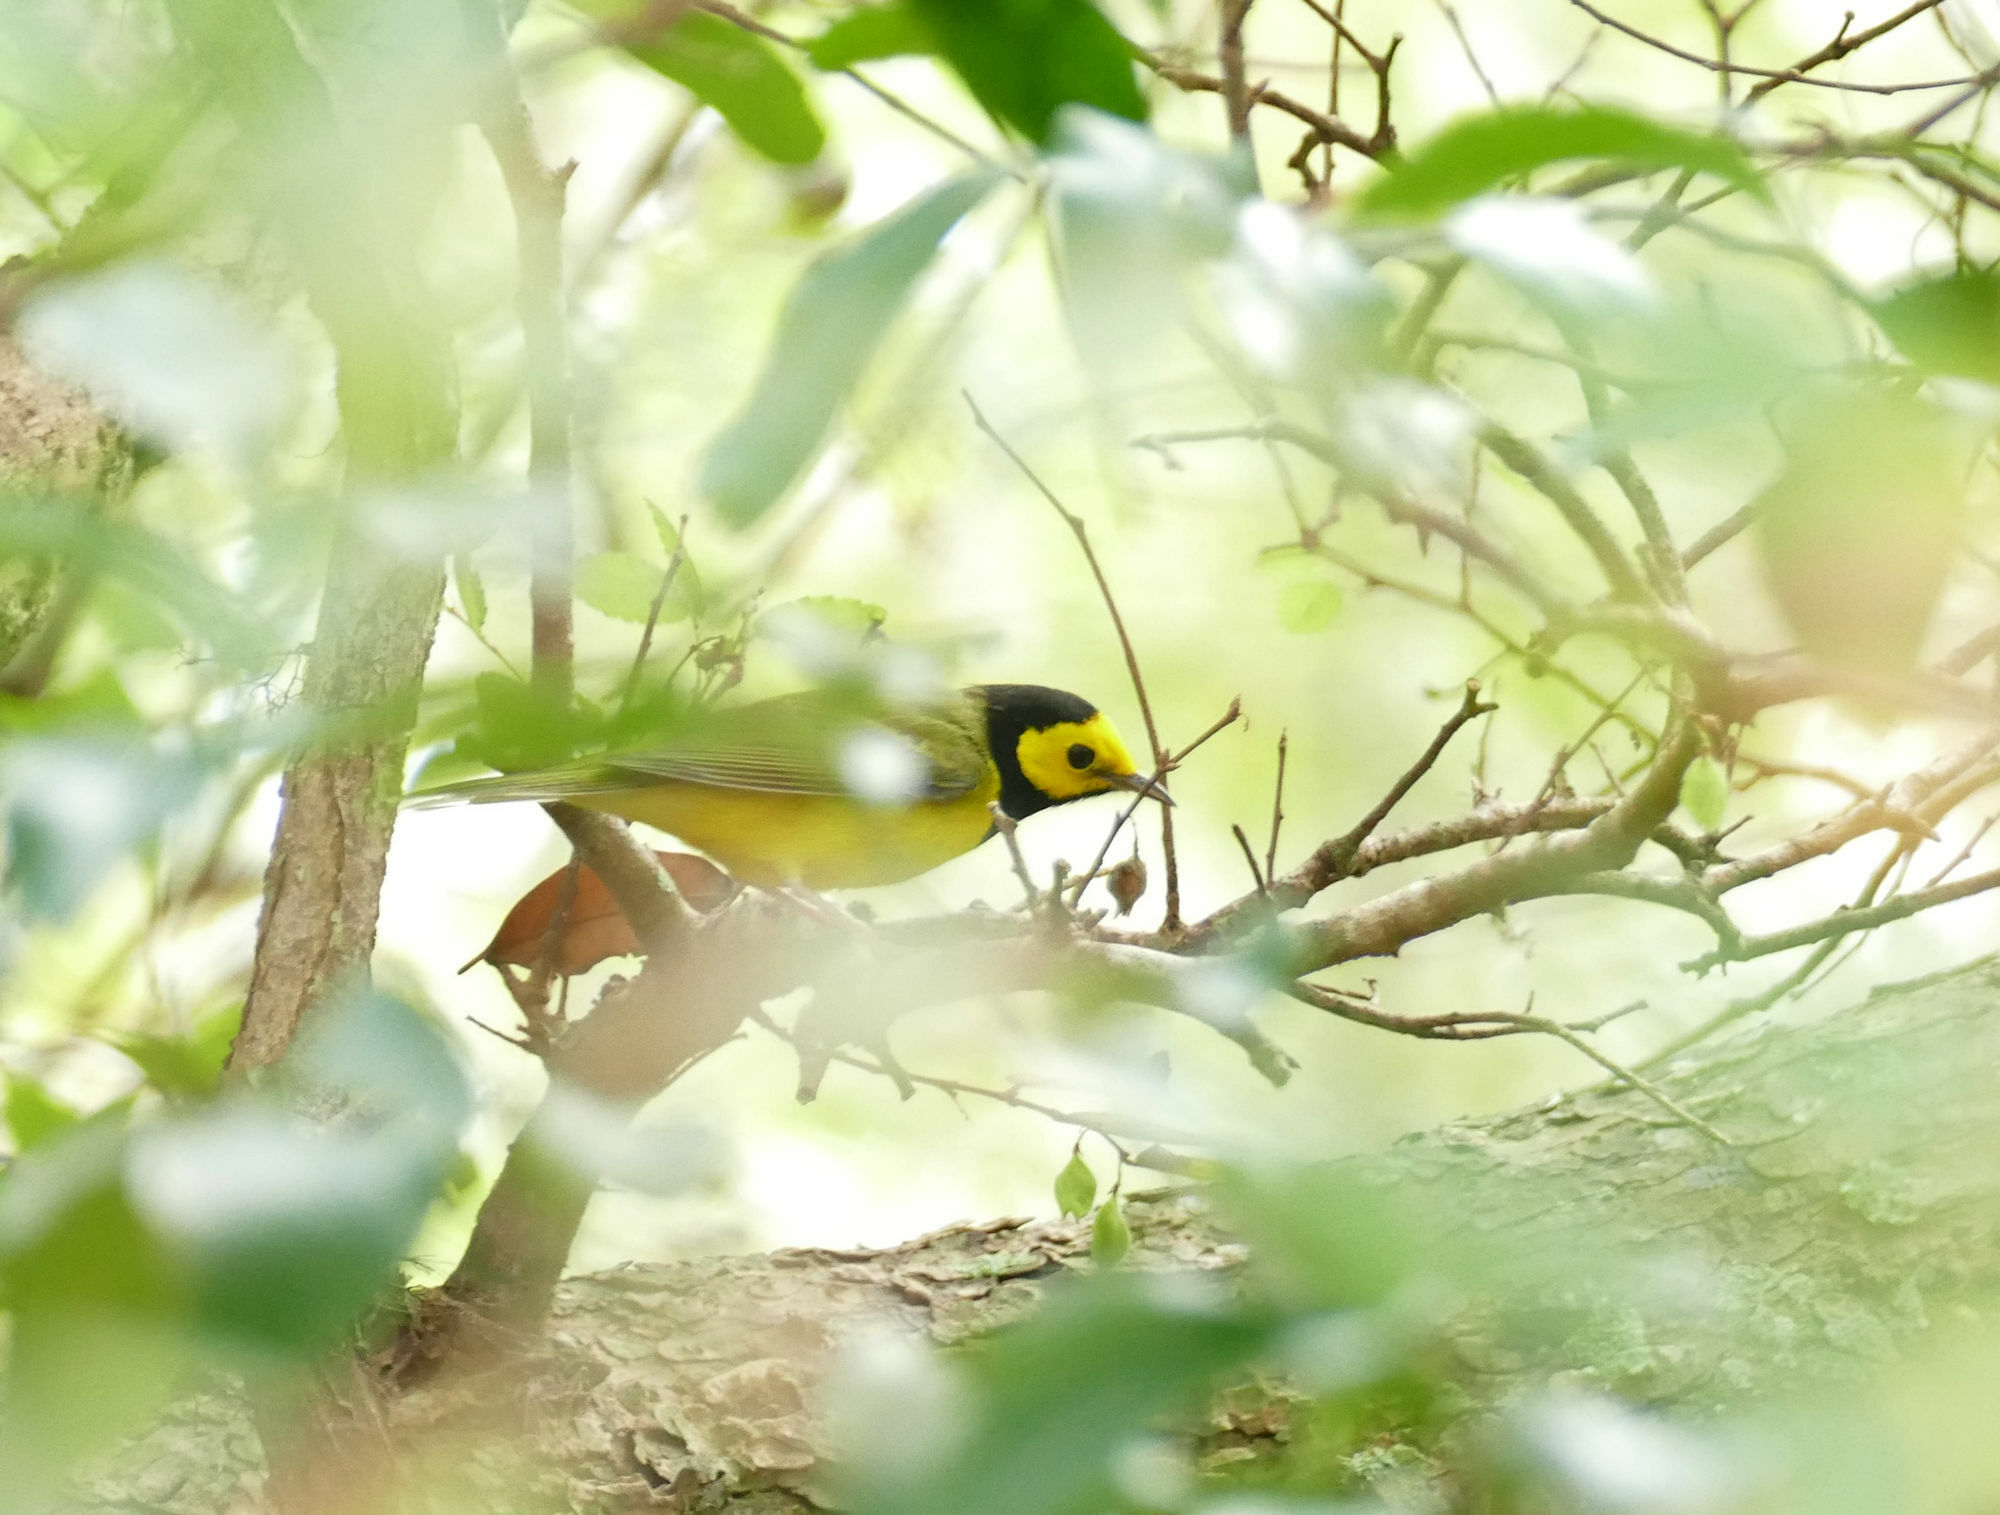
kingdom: Animalia
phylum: Chordata
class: Aves
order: Passeriformes
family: Parulidae
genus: Setophaga
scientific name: Setophaga citrina
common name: Hooded warbler
